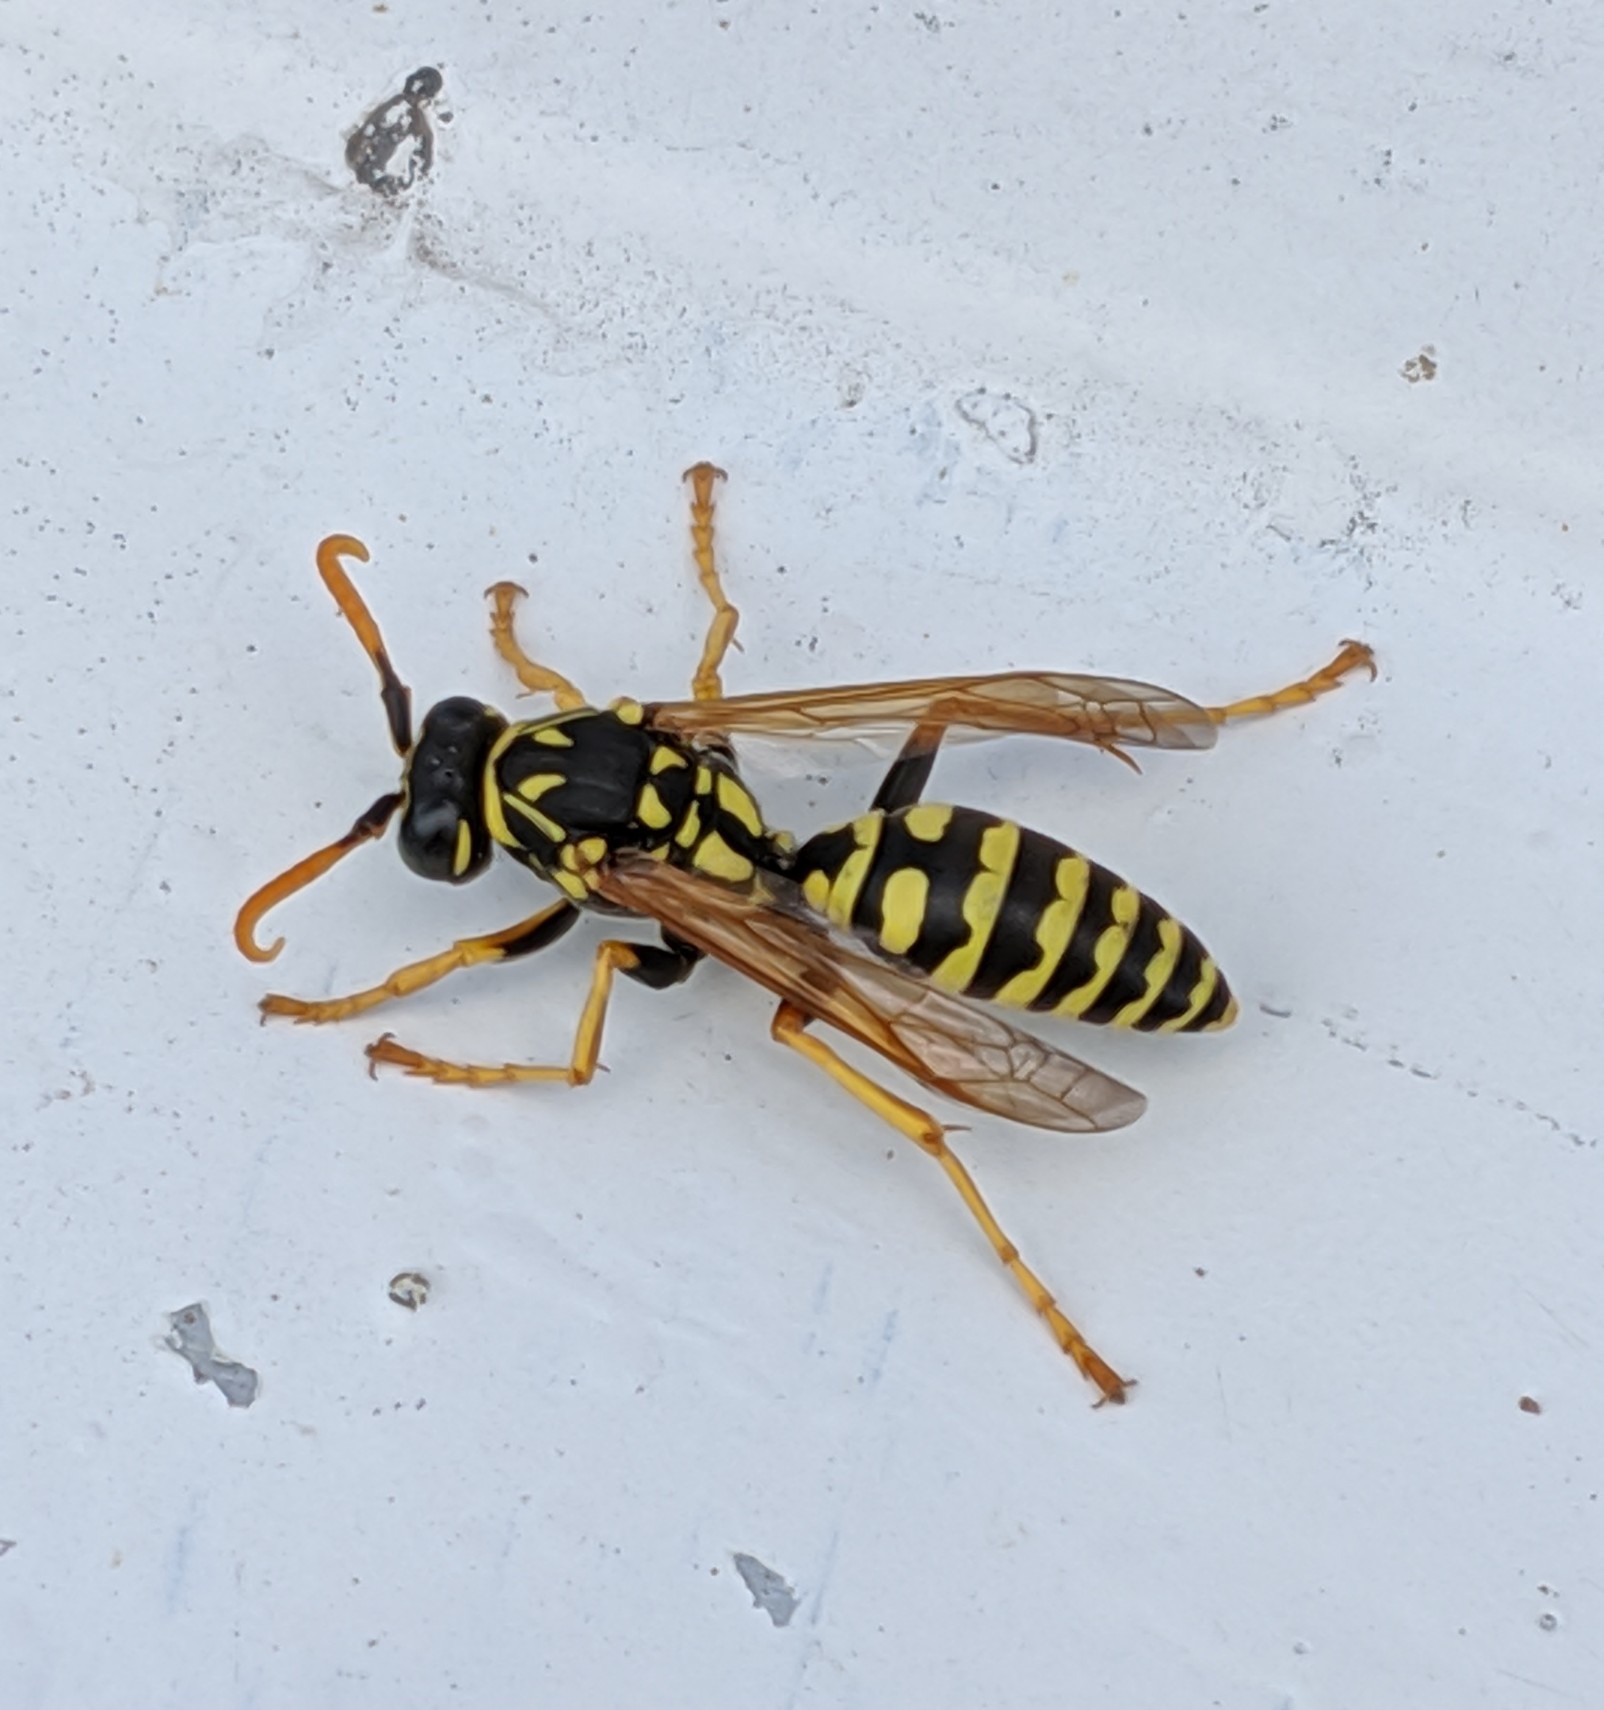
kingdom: Animalia
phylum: Arthropoda
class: Insecta
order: Hymenoptera
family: Eumenidae
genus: Polistes
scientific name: Polistes dominula
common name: Paper wasp
